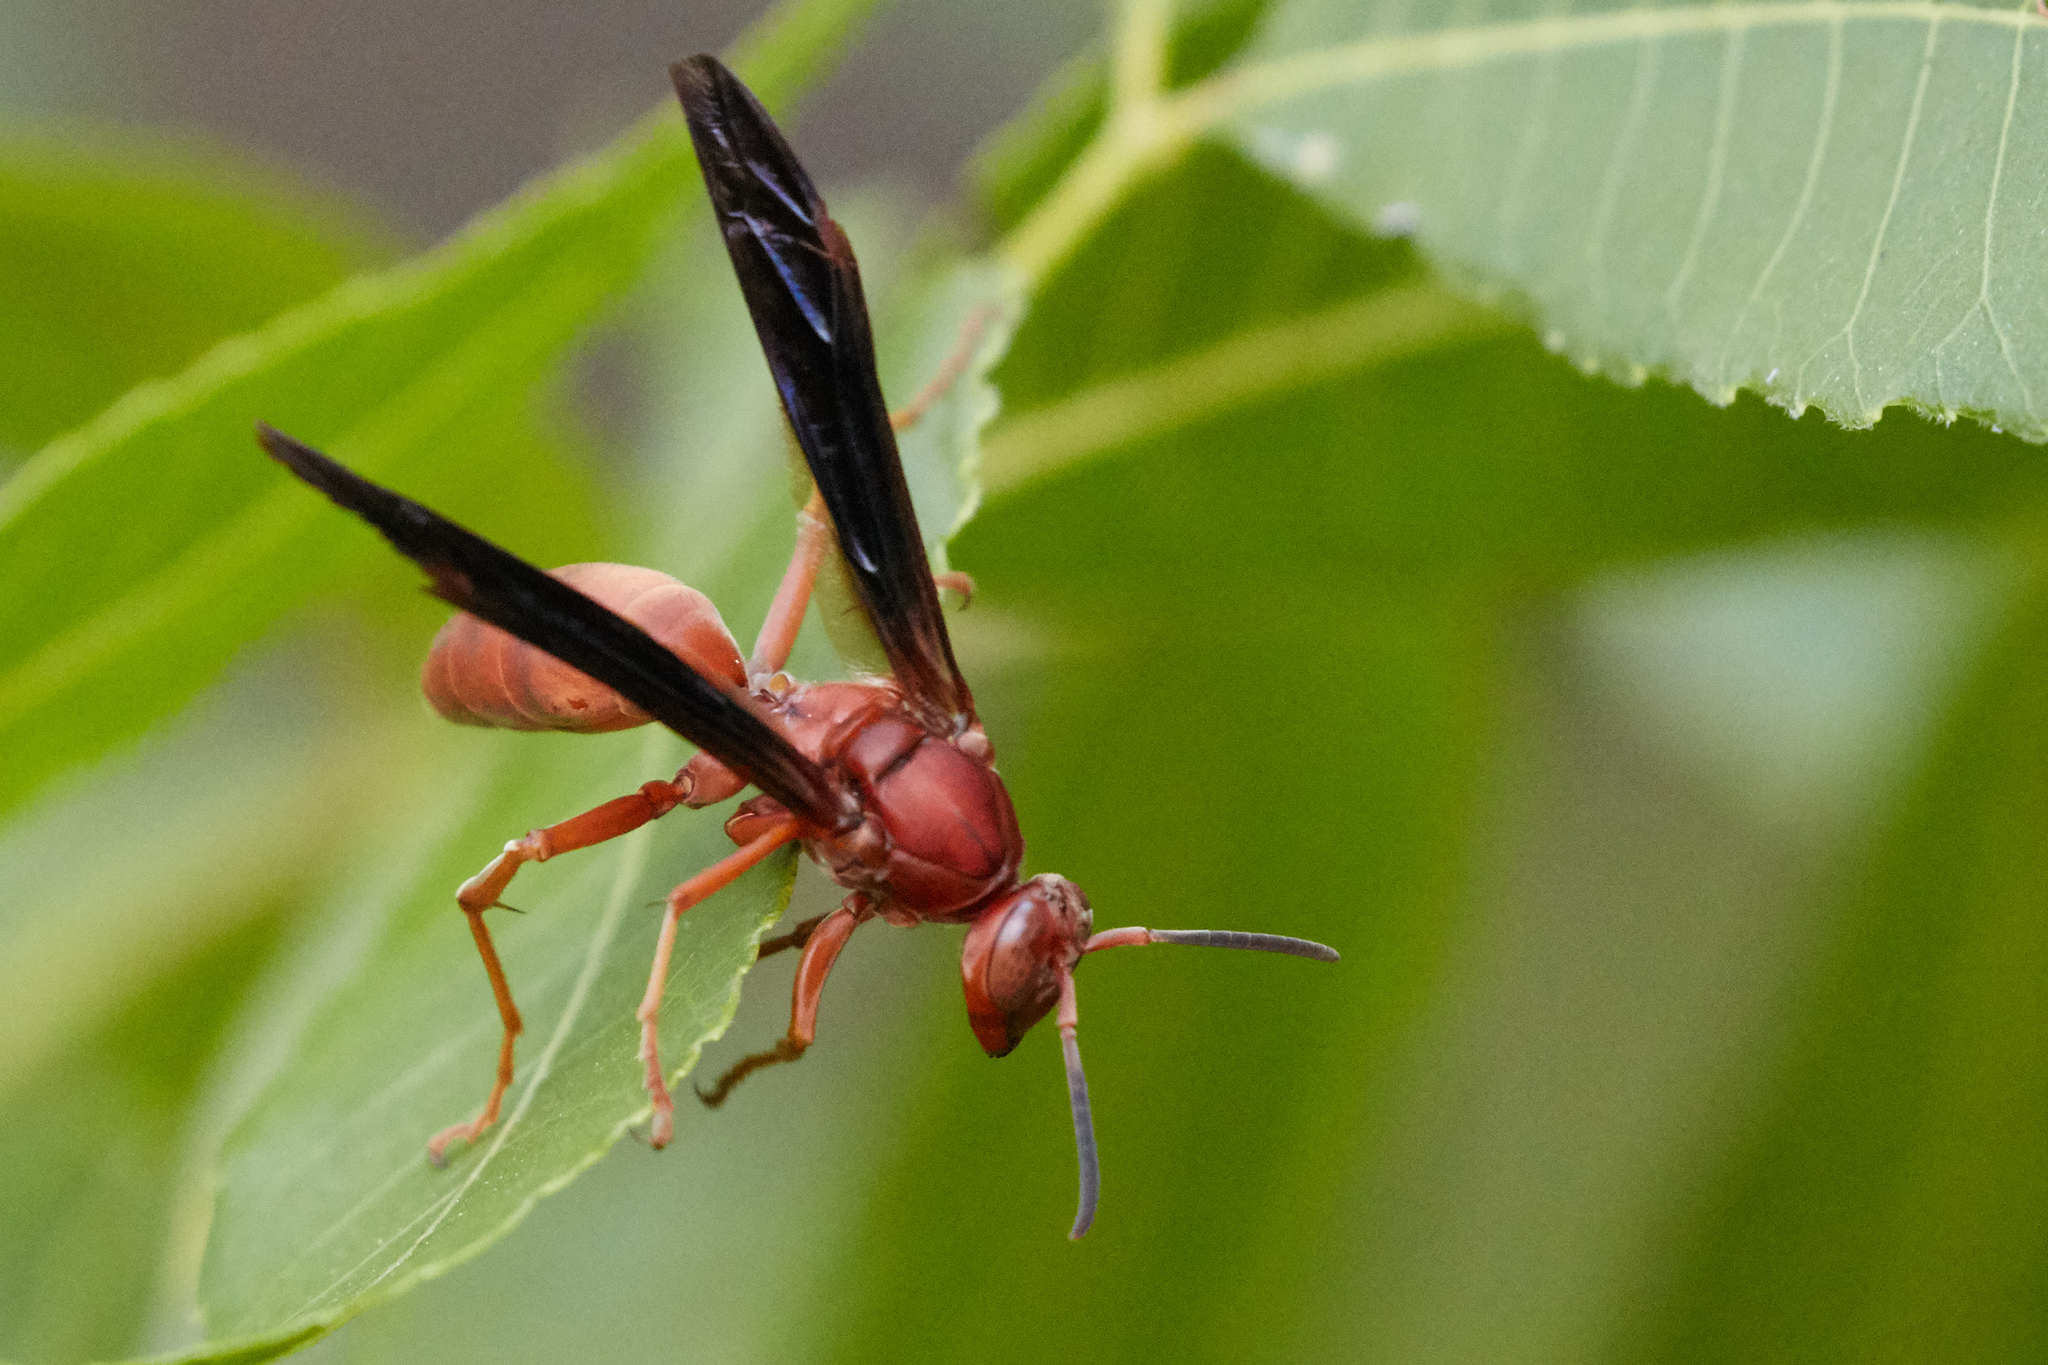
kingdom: Animalia
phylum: Arthropoda
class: Insecta
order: Hymenoptera
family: Vespidae
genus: Fuscopolistes
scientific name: Fuscopolistes
